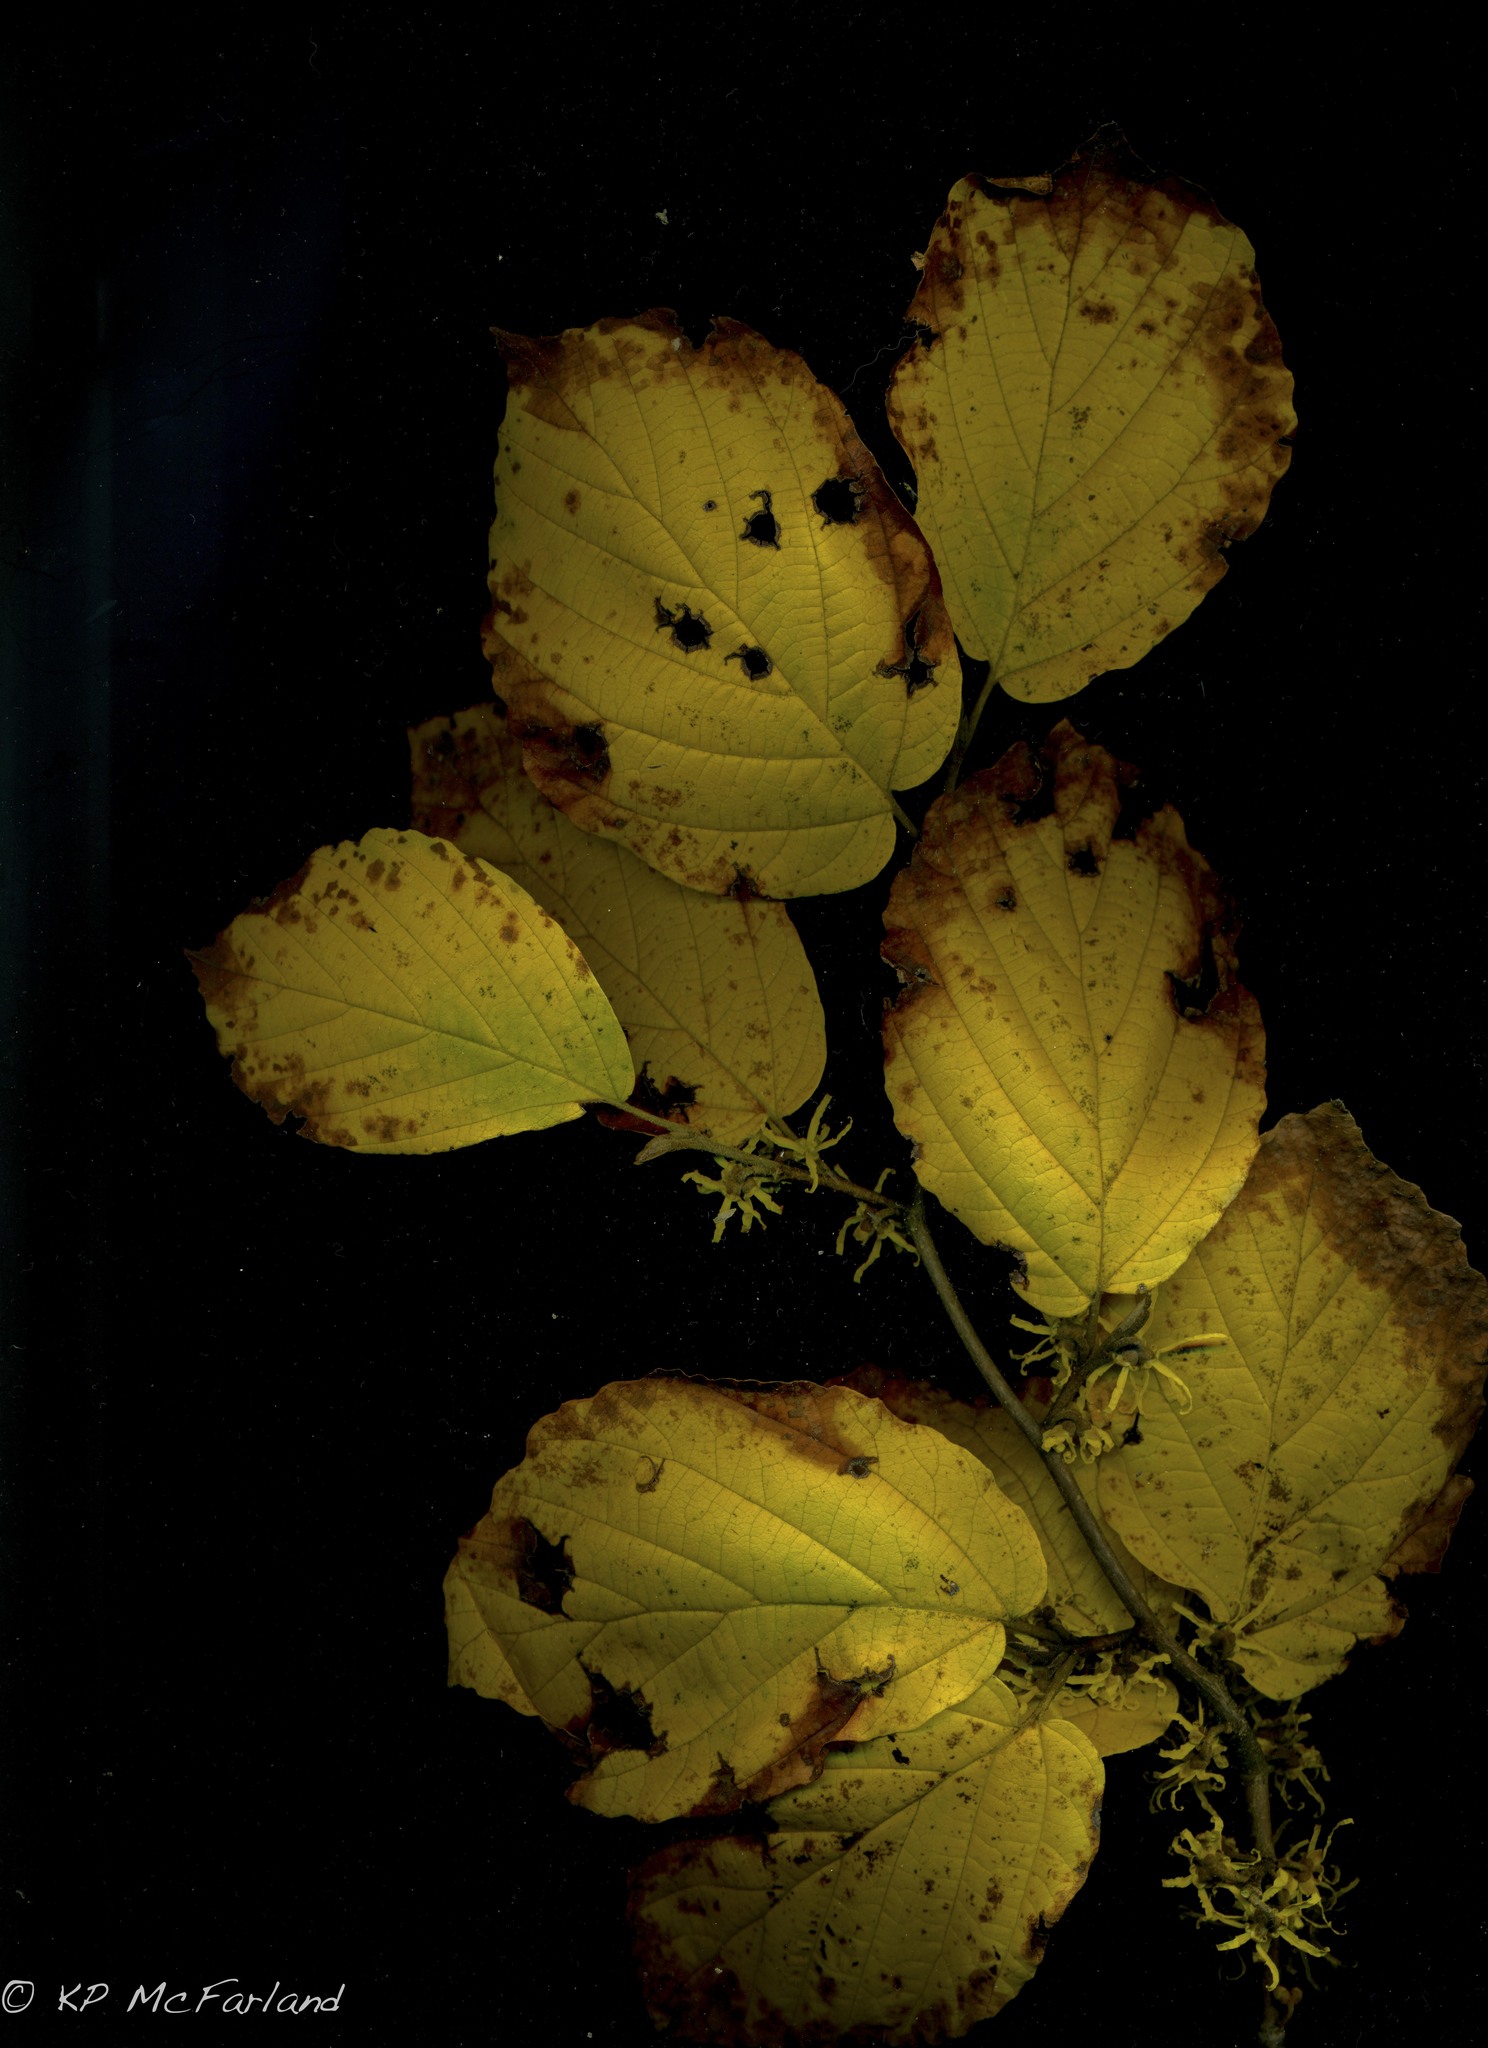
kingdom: Plantae
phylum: Tracheophyta
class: Magnoliopsida
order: Saxifragales
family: Hamamelidaceae
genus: Hamamelis
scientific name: Hamamelis virginiana
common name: Witch-hazel
